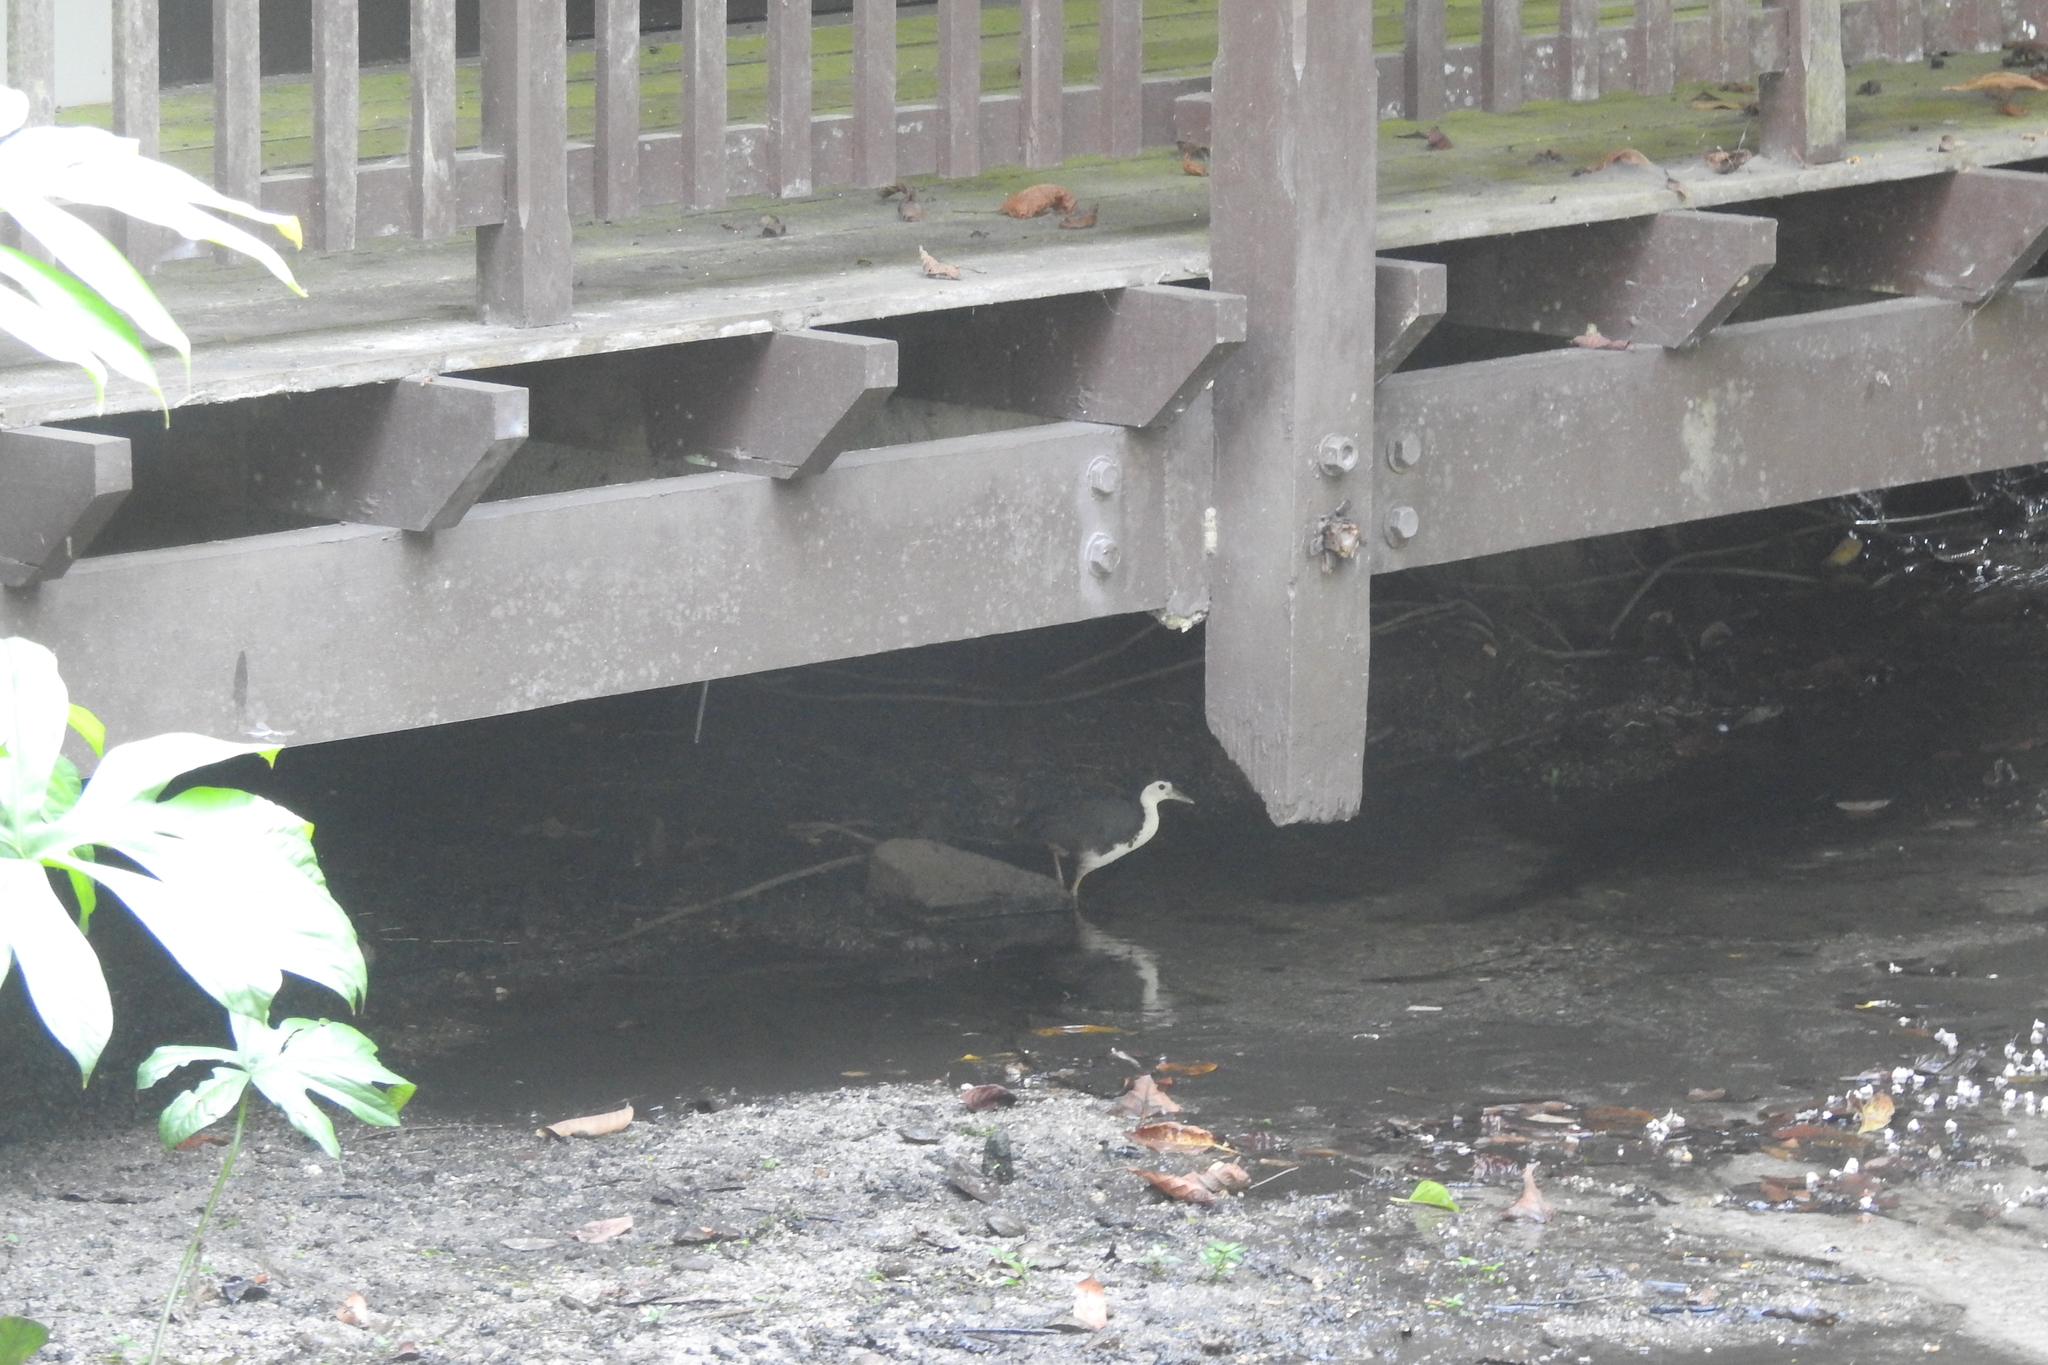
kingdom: Animalia
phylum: Chordata
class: Aves
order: Gruiformes
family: Rallidae
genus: Amaurornis
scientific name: Amaurornis phoenicurus
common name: White-breasted waterhen
